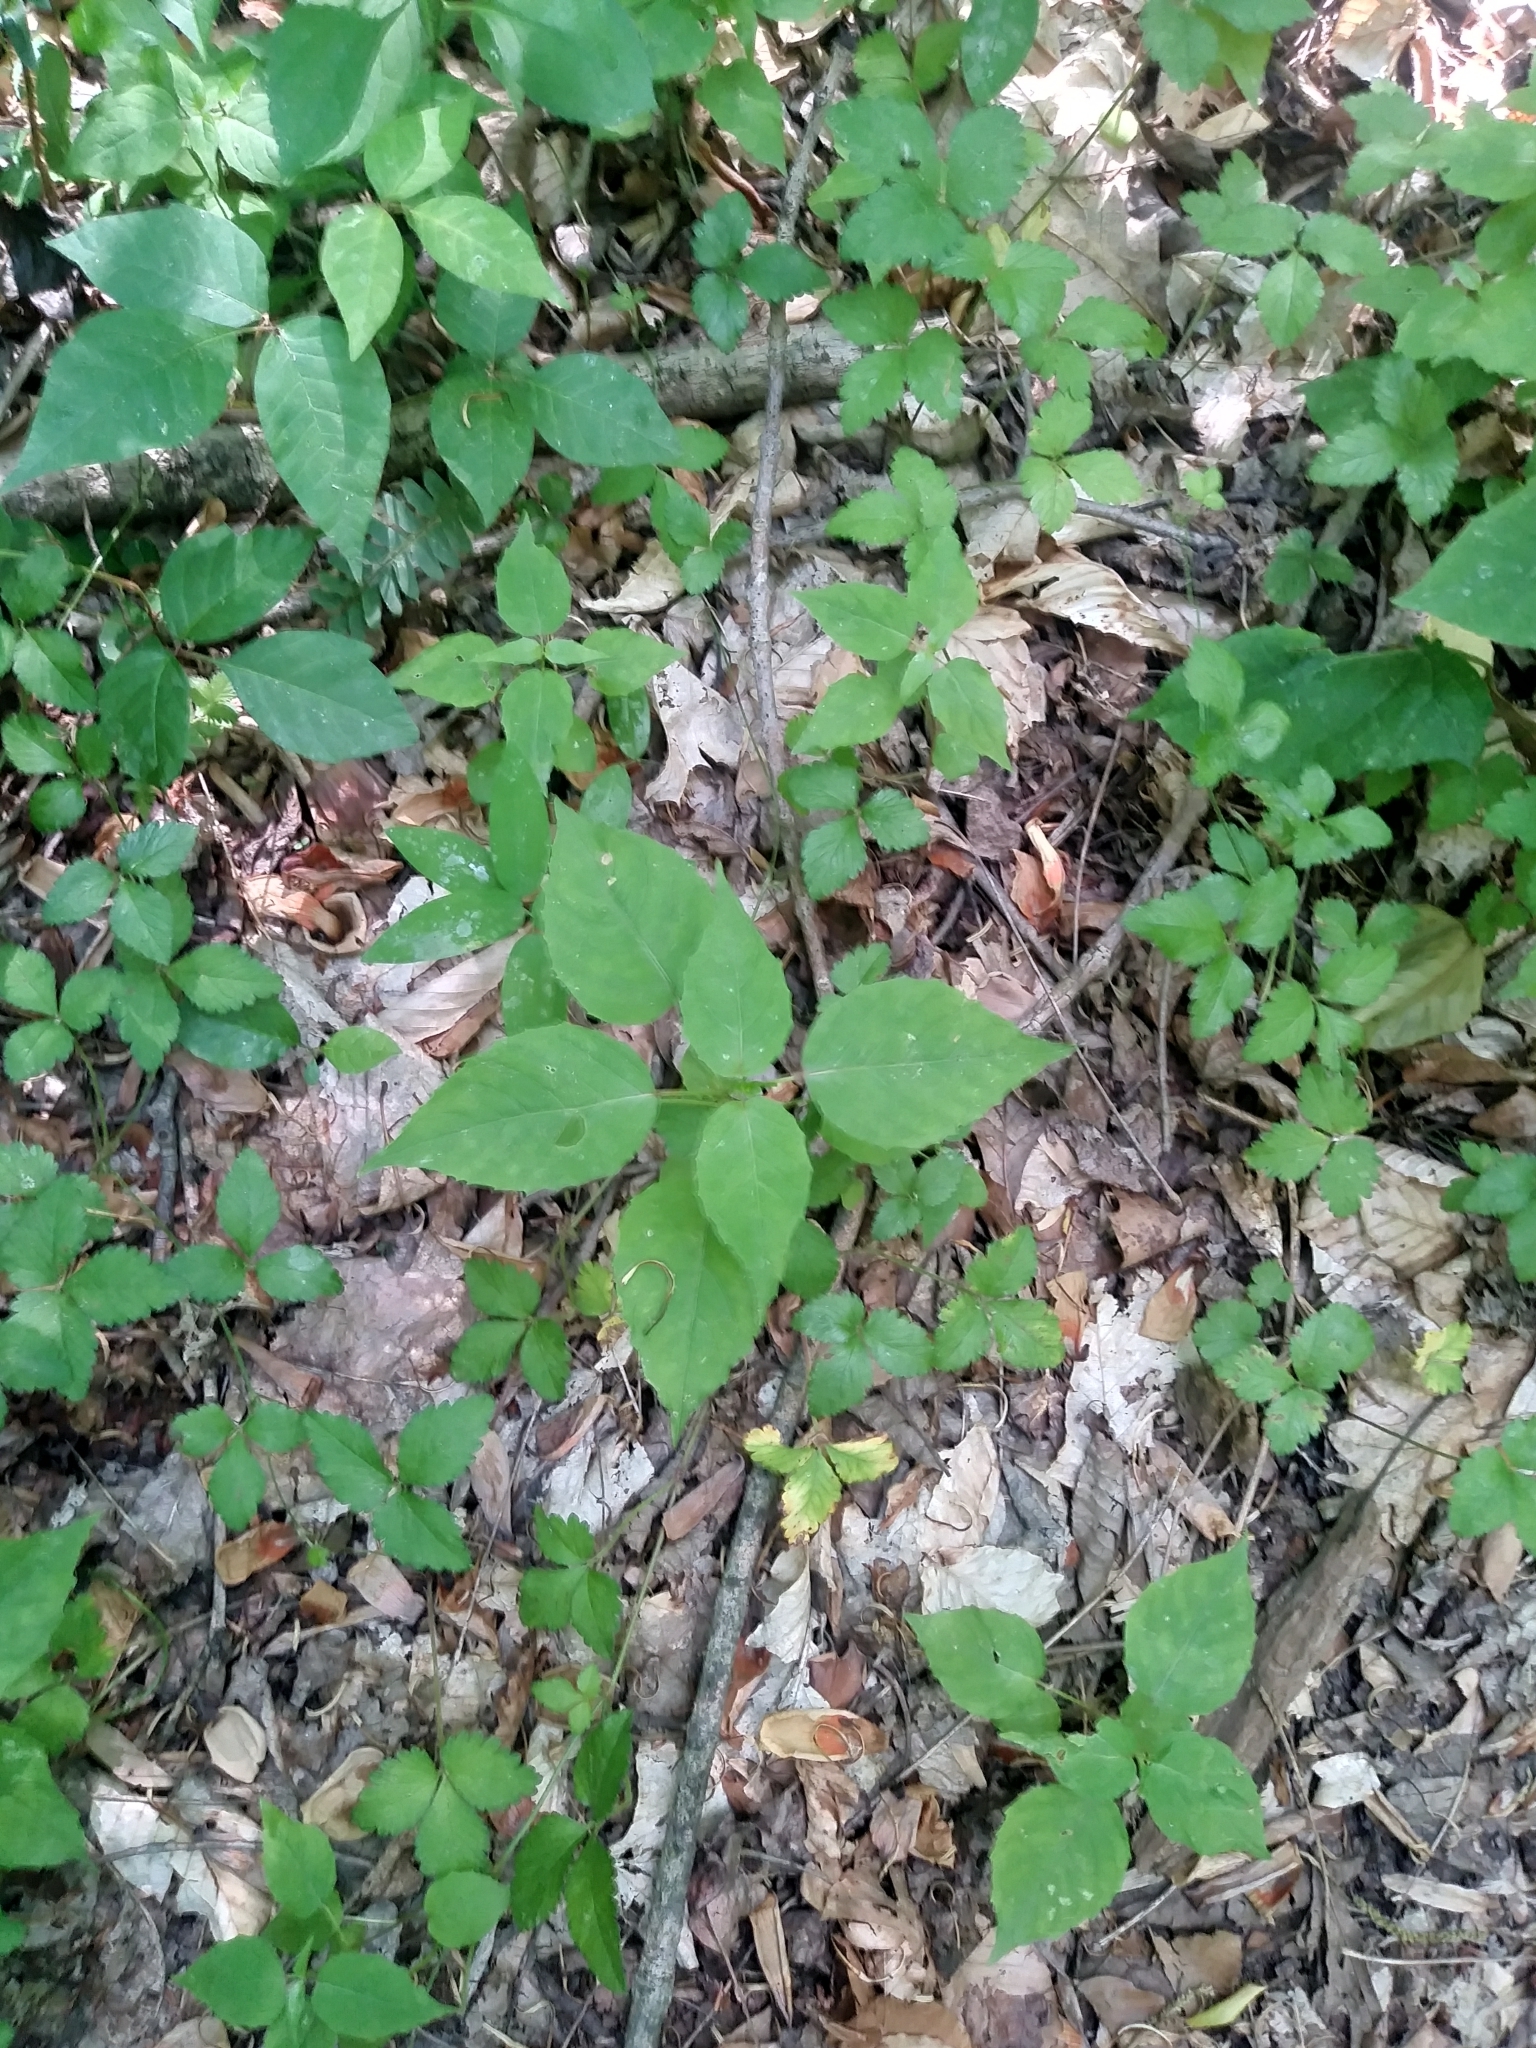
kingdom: Plantae
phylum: Tracheophyta
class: Magnoliopsida
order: Myrtales
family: Onagraceae
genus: Circaea
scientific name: Circaea canadensis
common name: Broad-leaved enchanter's nightshade
